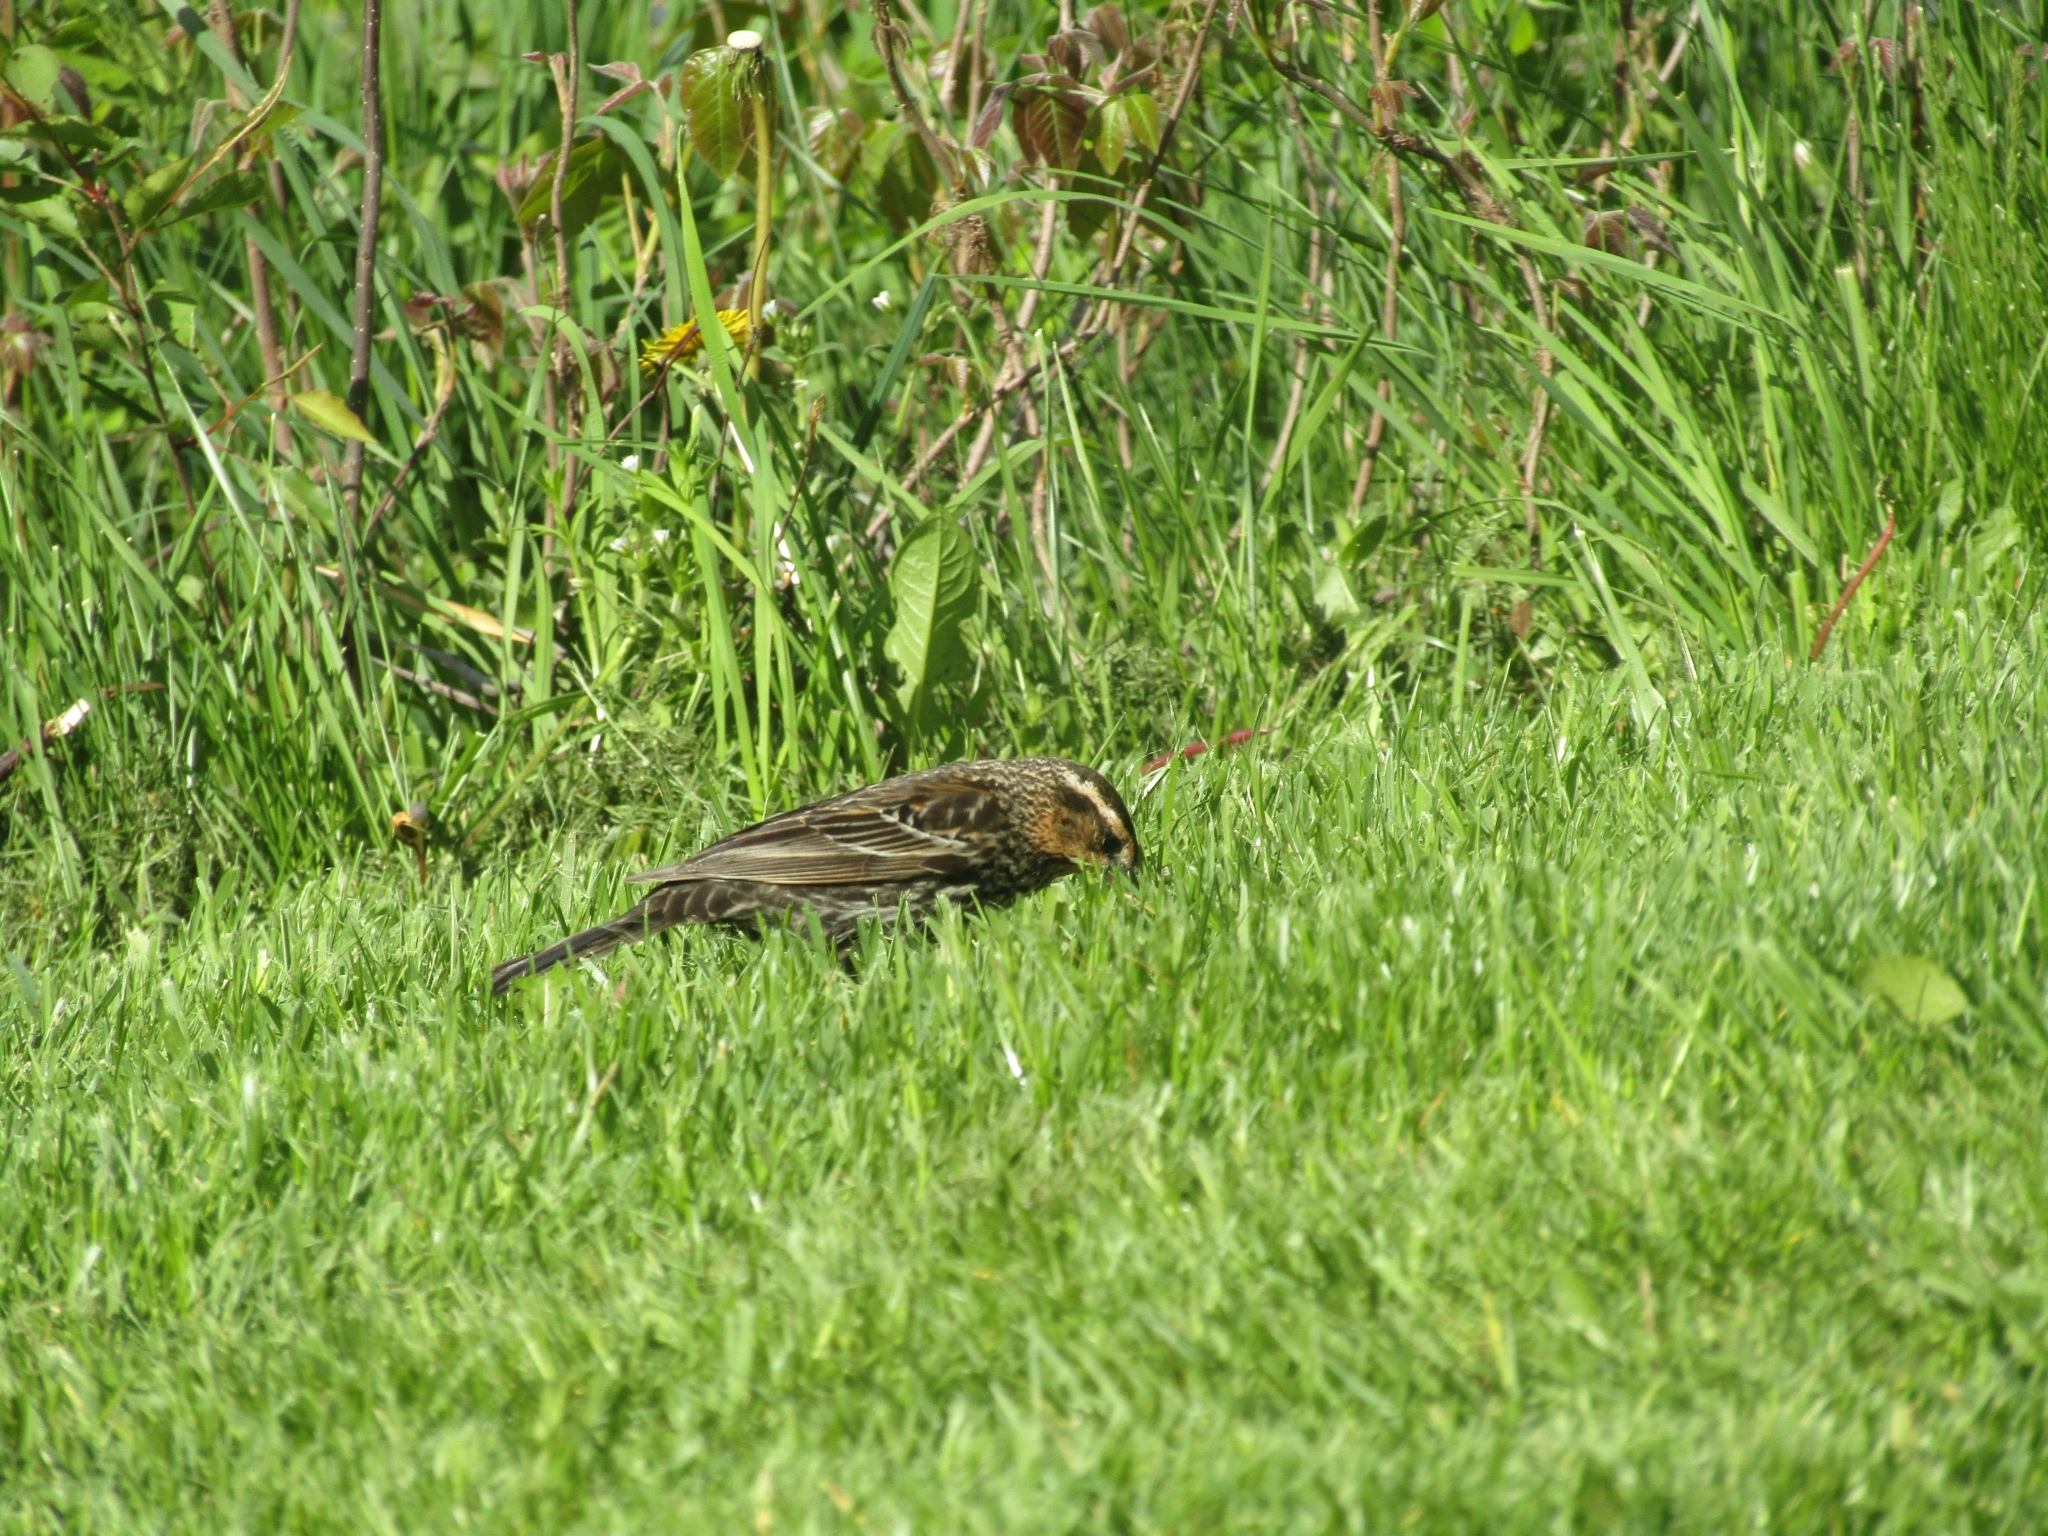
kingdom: Animalia
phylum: Chordata
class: Aves
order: Passeriformes
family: Icteridae
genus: Agelaius
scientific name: Agelaius phoeniceus
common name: Red-winged blackbird
